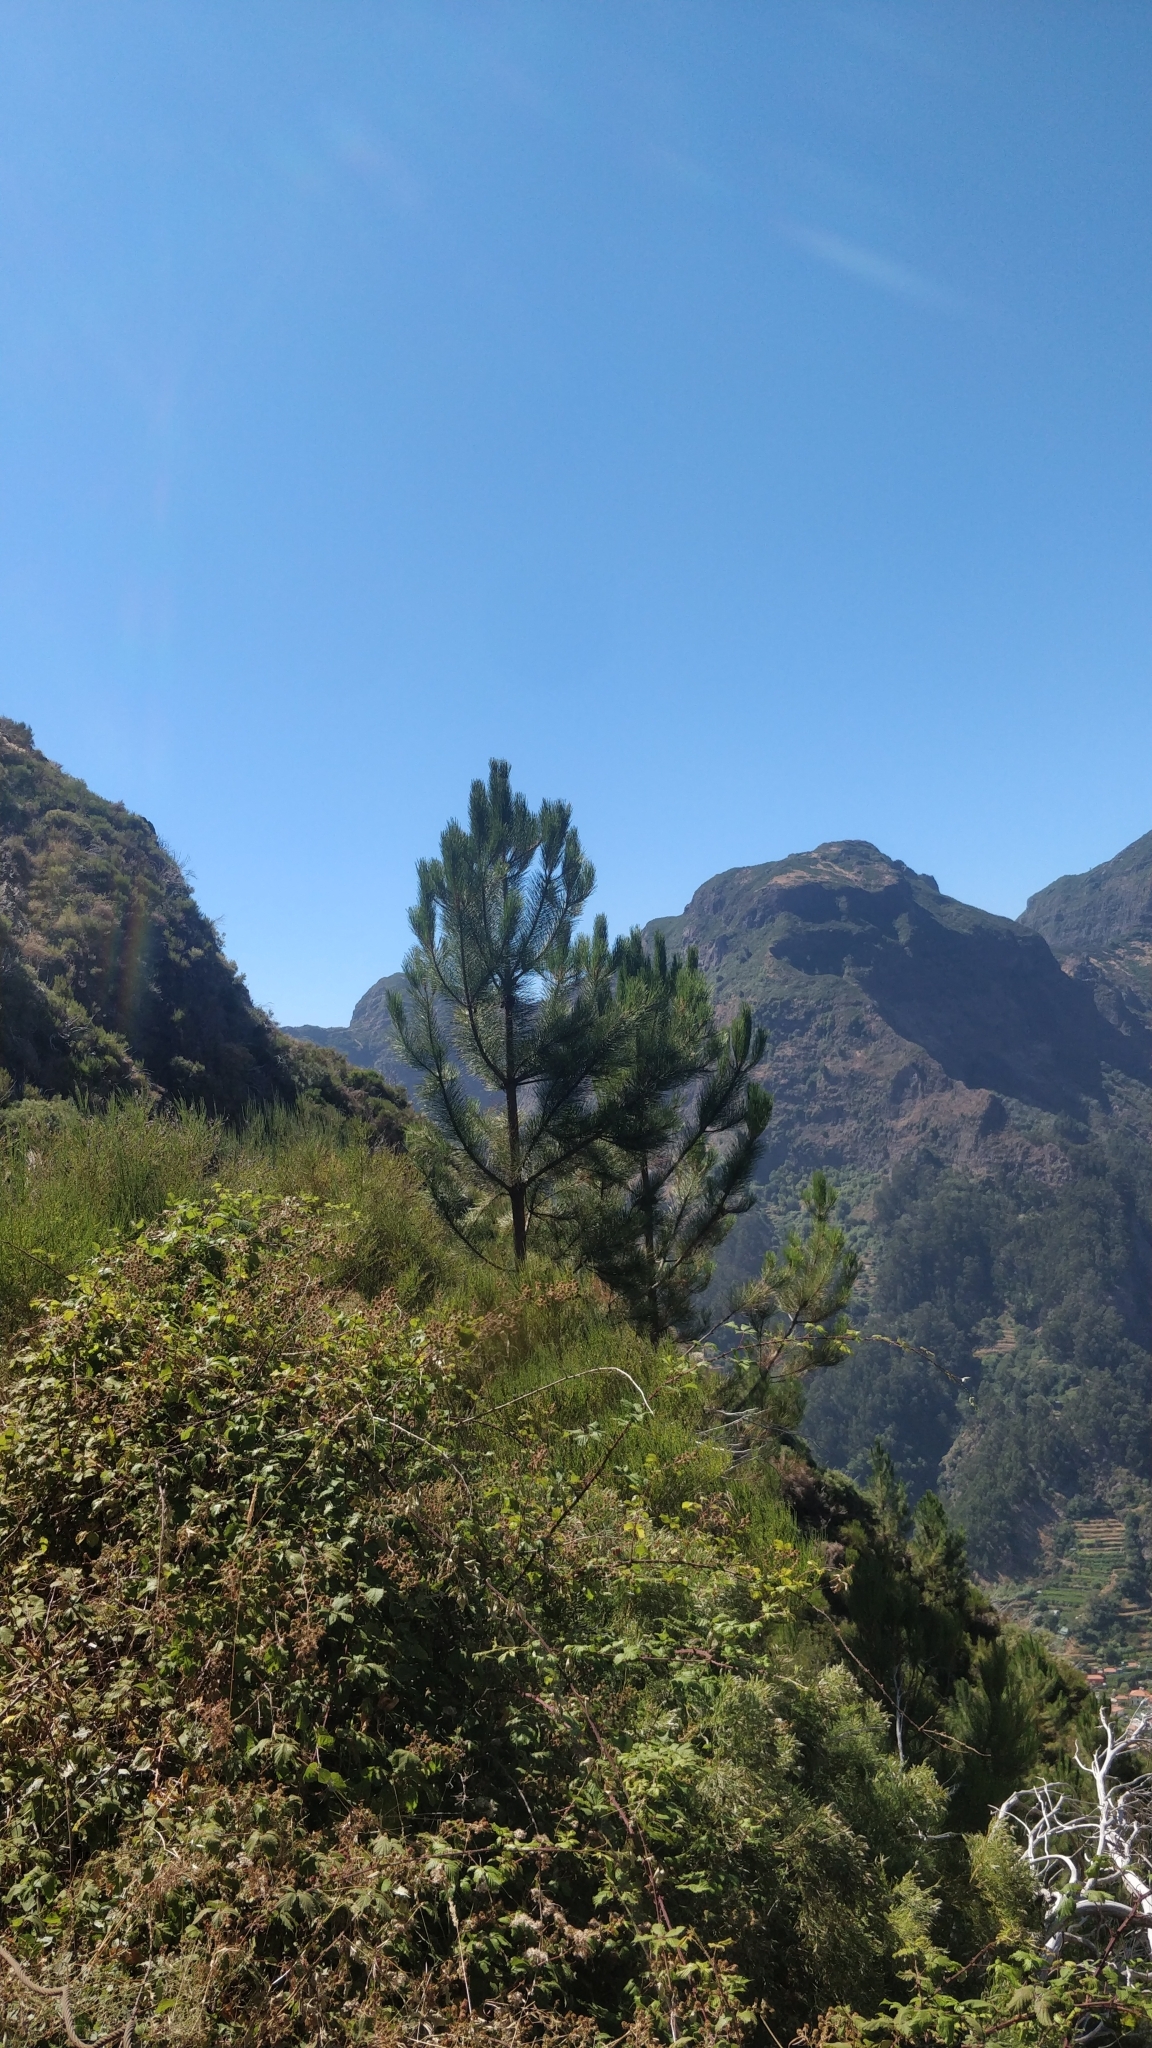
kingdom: Plantae
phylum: Tracheophyta
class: Pinopsida
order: Pinales
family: Pinaceae
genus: Pinus
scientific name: Pinus pinaster
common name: Maritime pine
